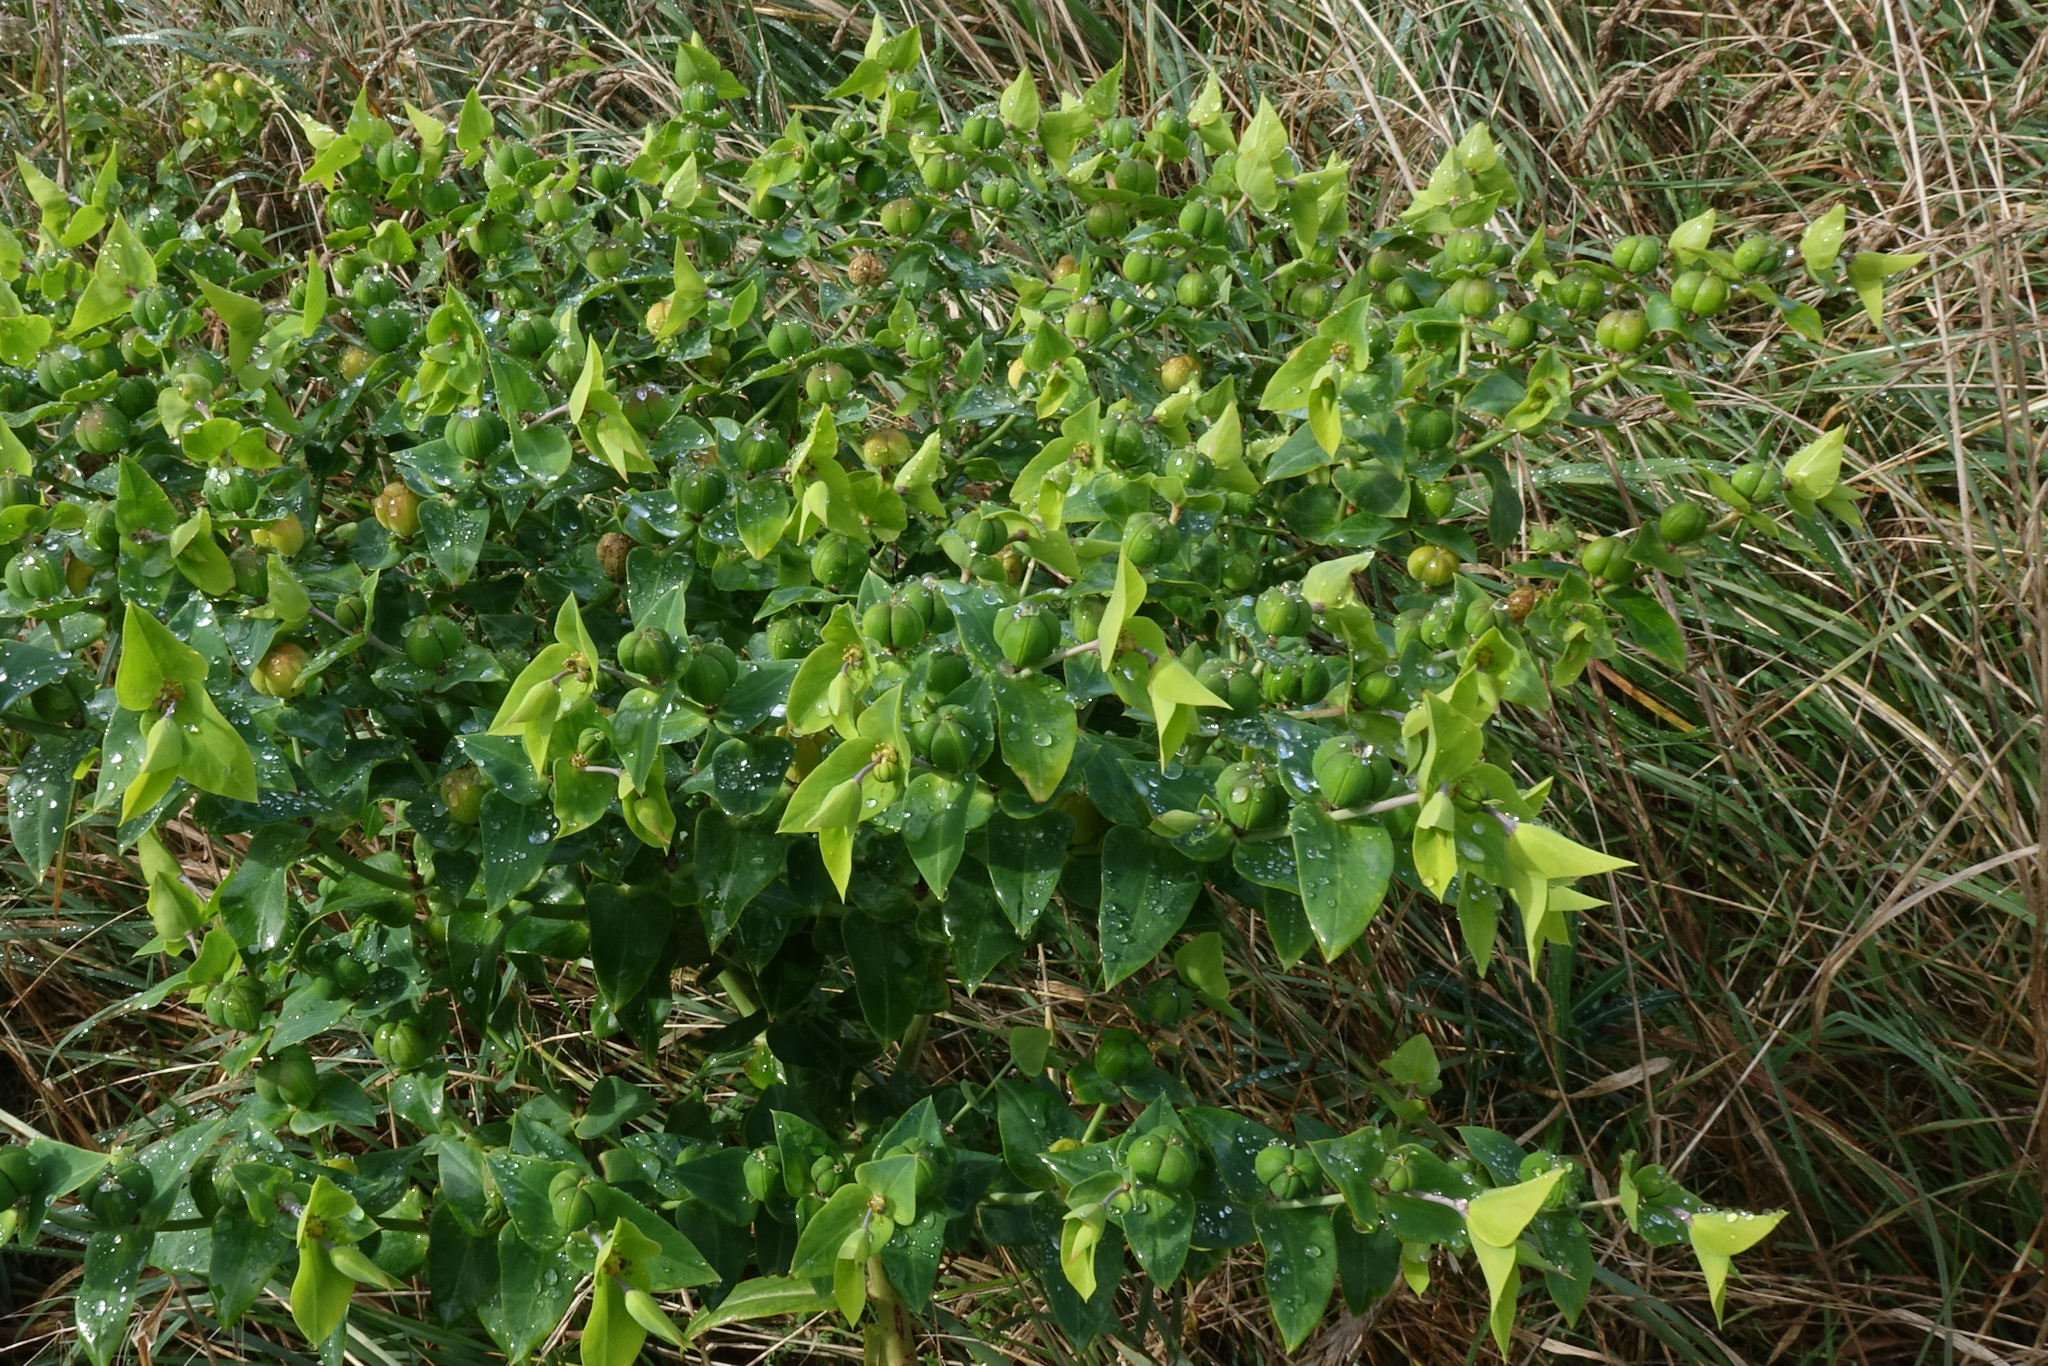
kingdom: Plantae
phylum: Tracheophyta
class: Magnoliopsida
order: Malpighiales
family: Euphorbiaceae
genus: Euphorbia
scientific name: Euphorbia lathyris
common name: Caper spurge
